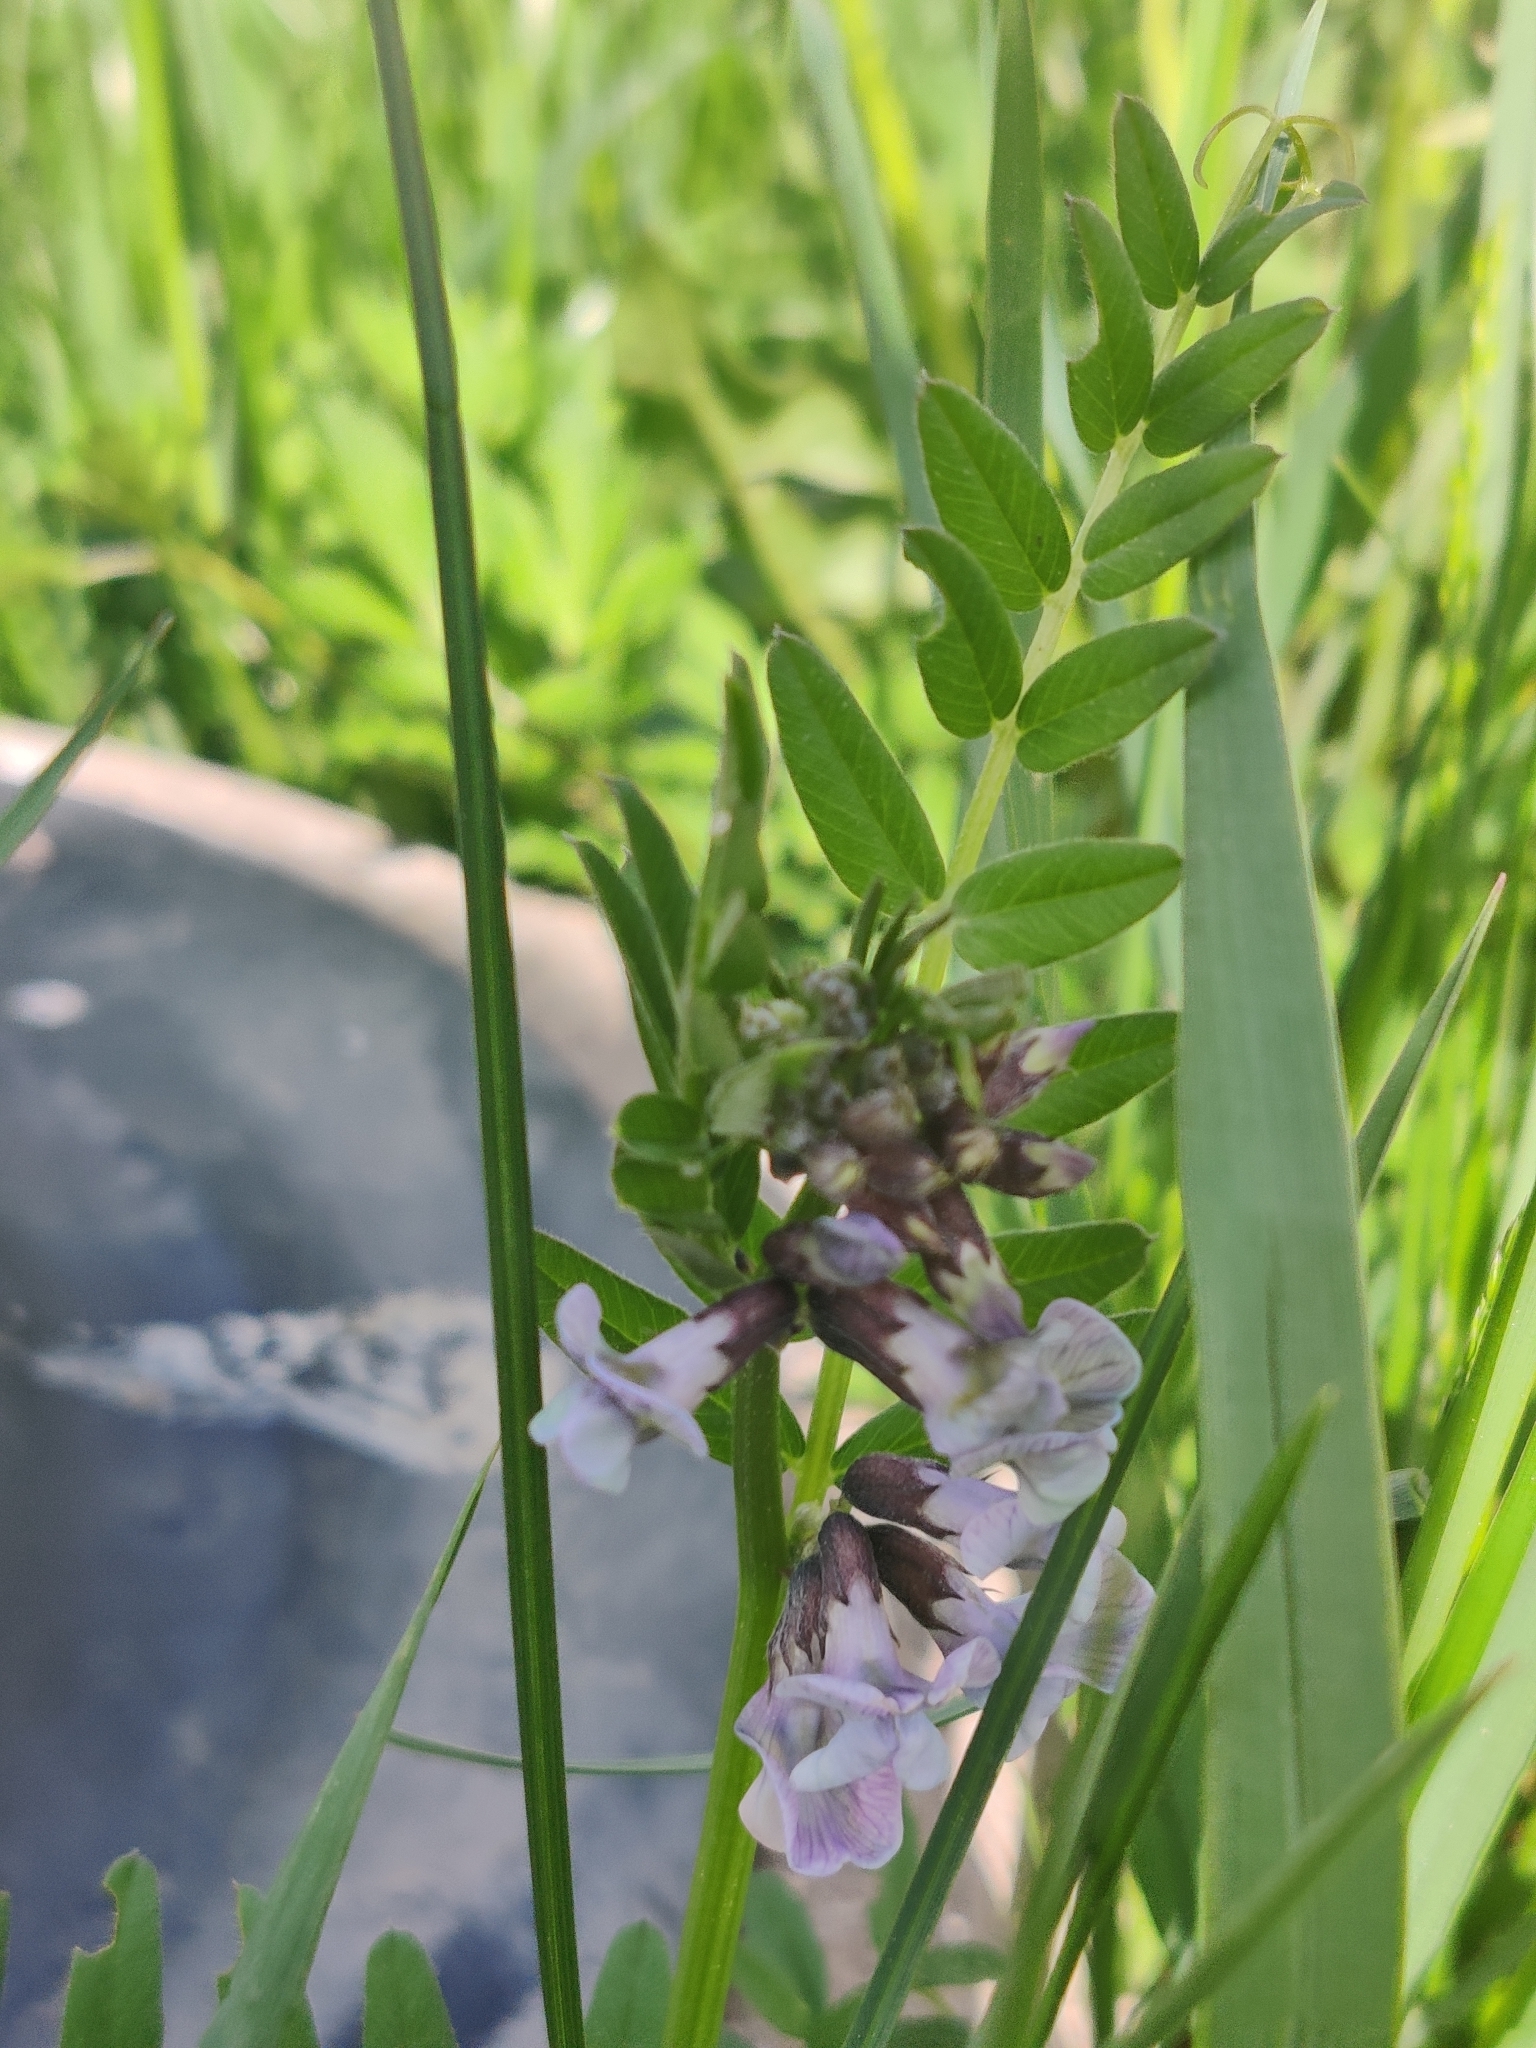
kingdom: Plantae
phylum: Tracheophyta
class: Magnoliopsida
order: Fabales
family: Fabaceae
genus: Vicia
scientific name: Vicia sepium
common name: Bush vetch
